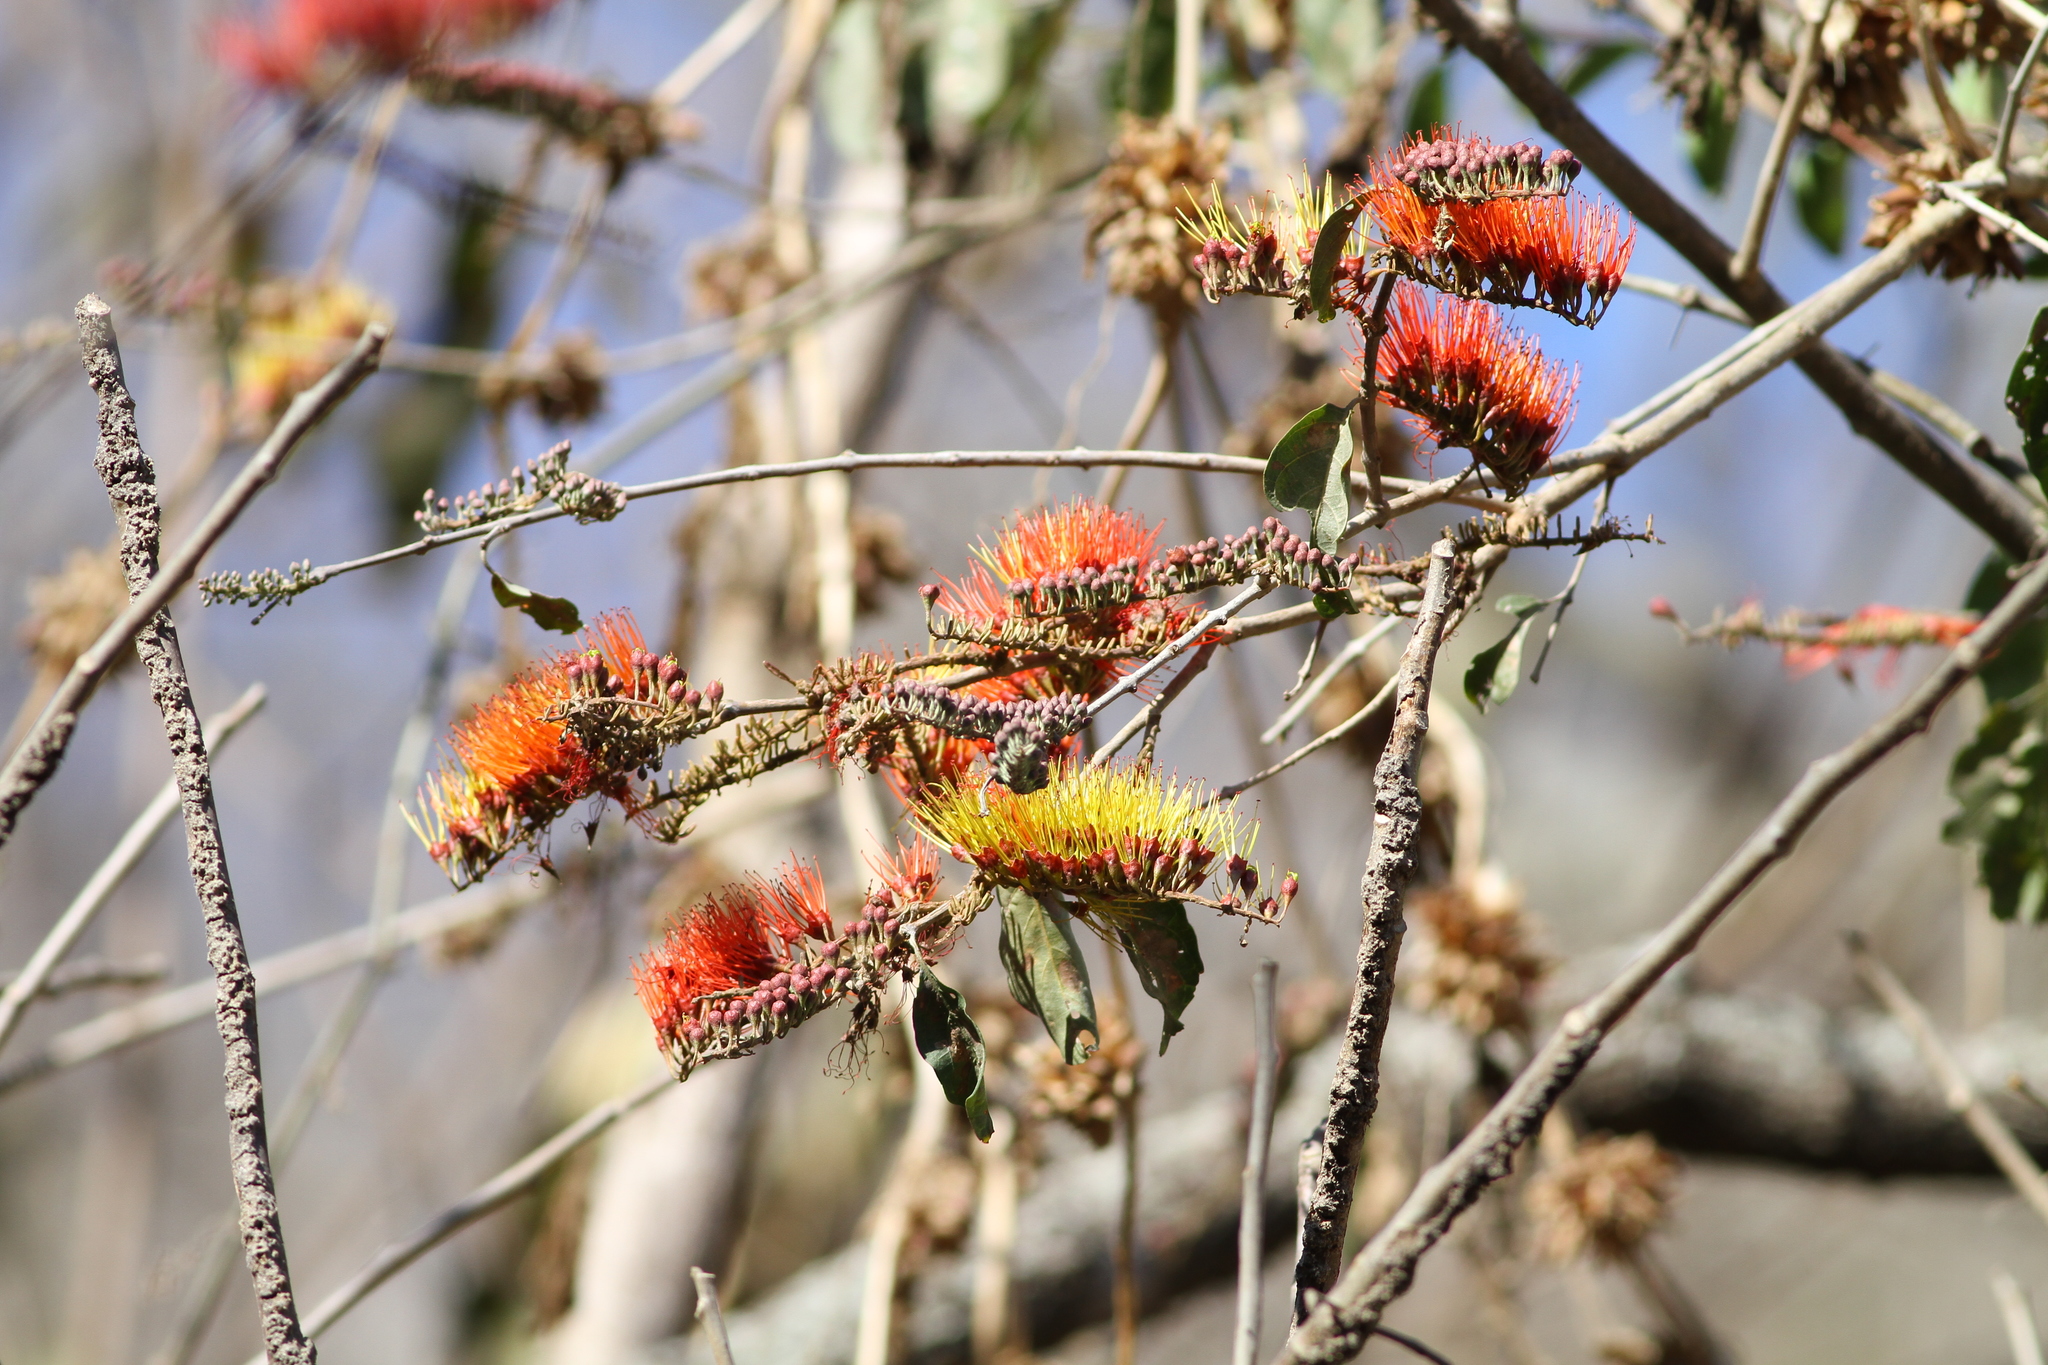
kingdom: Plantae
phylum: Tracheophyta
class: Magnoliopsida
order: Myrtales
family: Combretaceae
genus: Combretum
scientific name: Combretum farinosum
